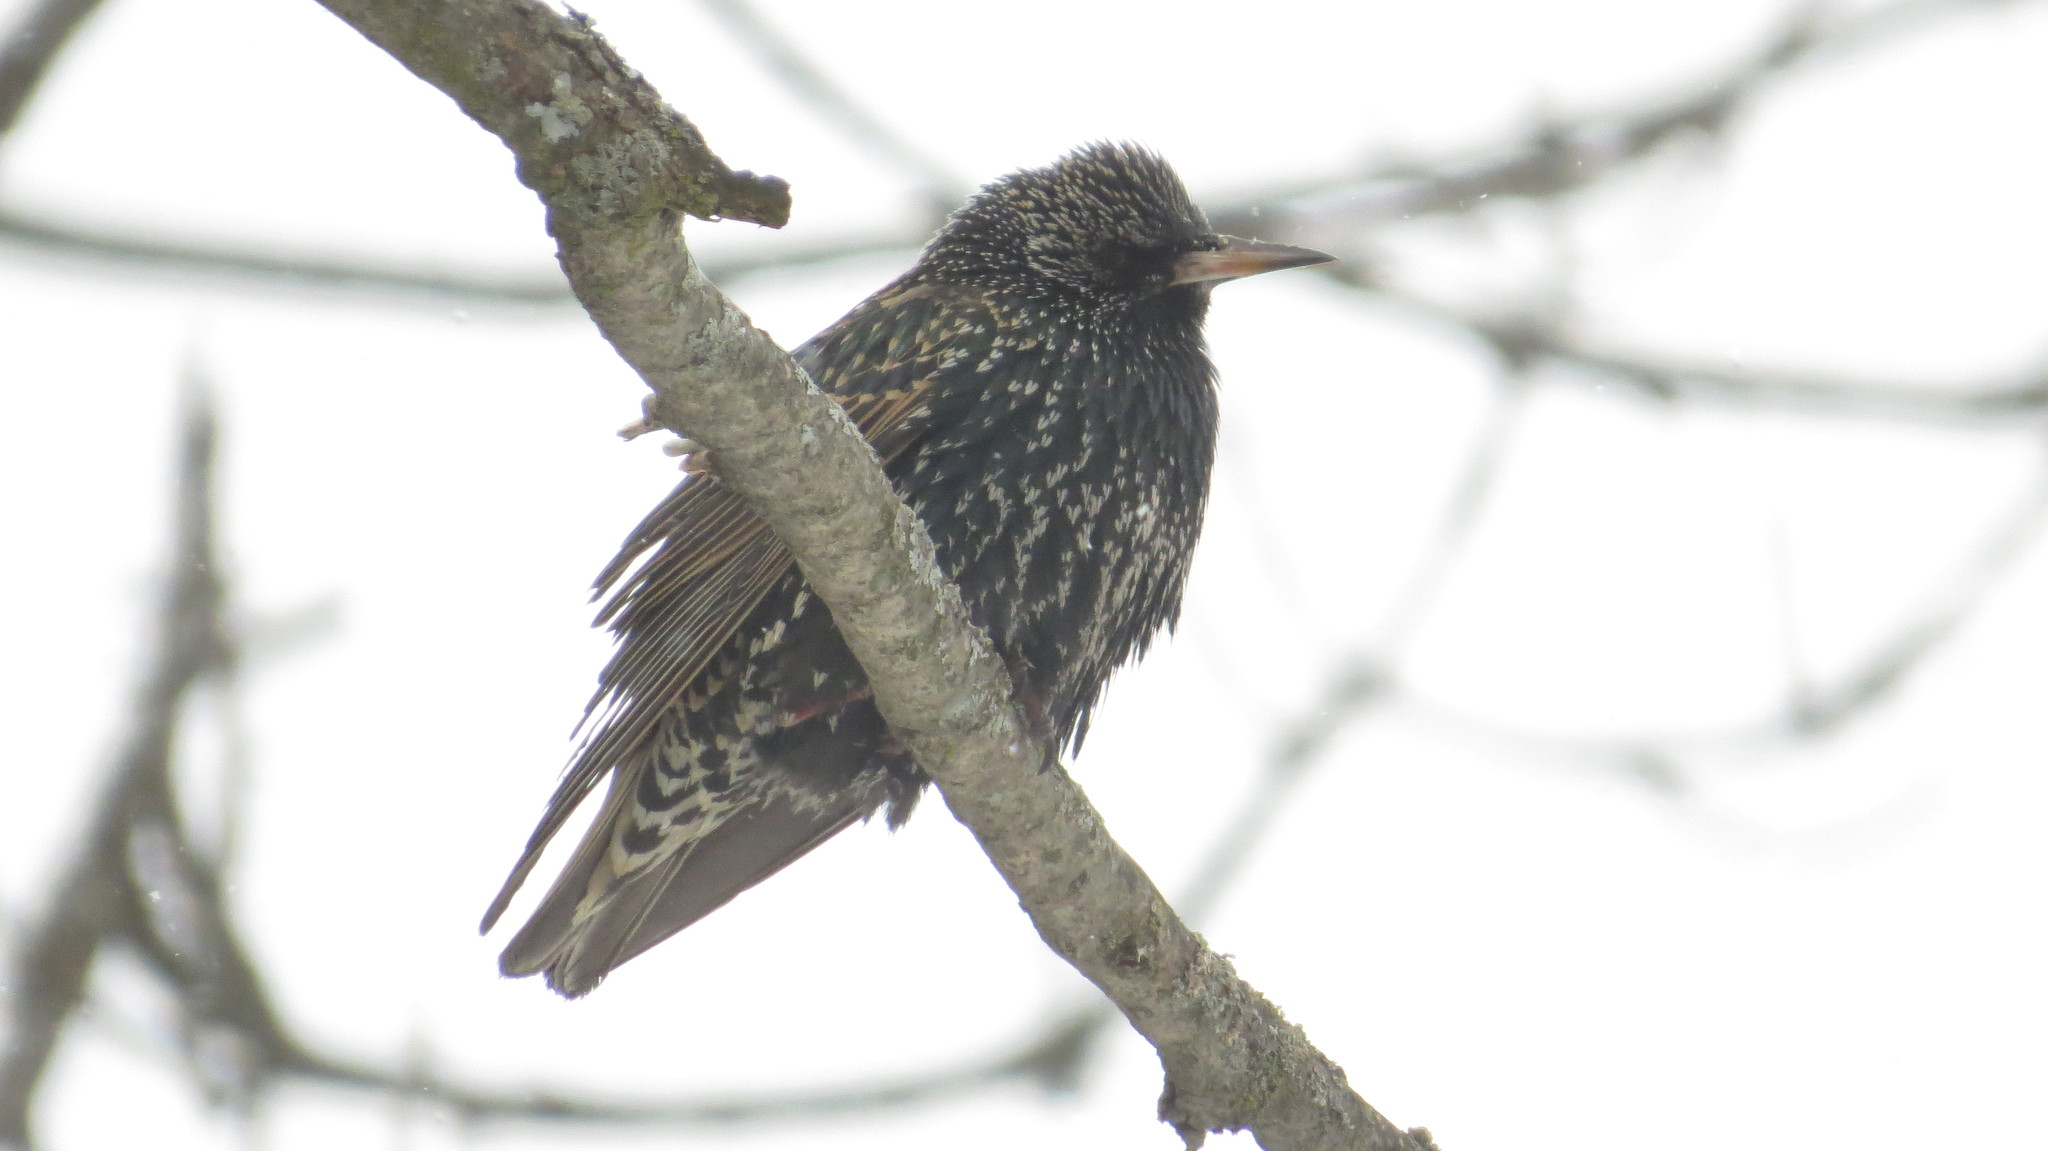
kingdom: Animalia
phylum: Chordata
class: Aves
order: Passeriformes
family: Sturnidae
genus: Sturnus
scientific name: Sturnus vulgaris
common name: Common starling
